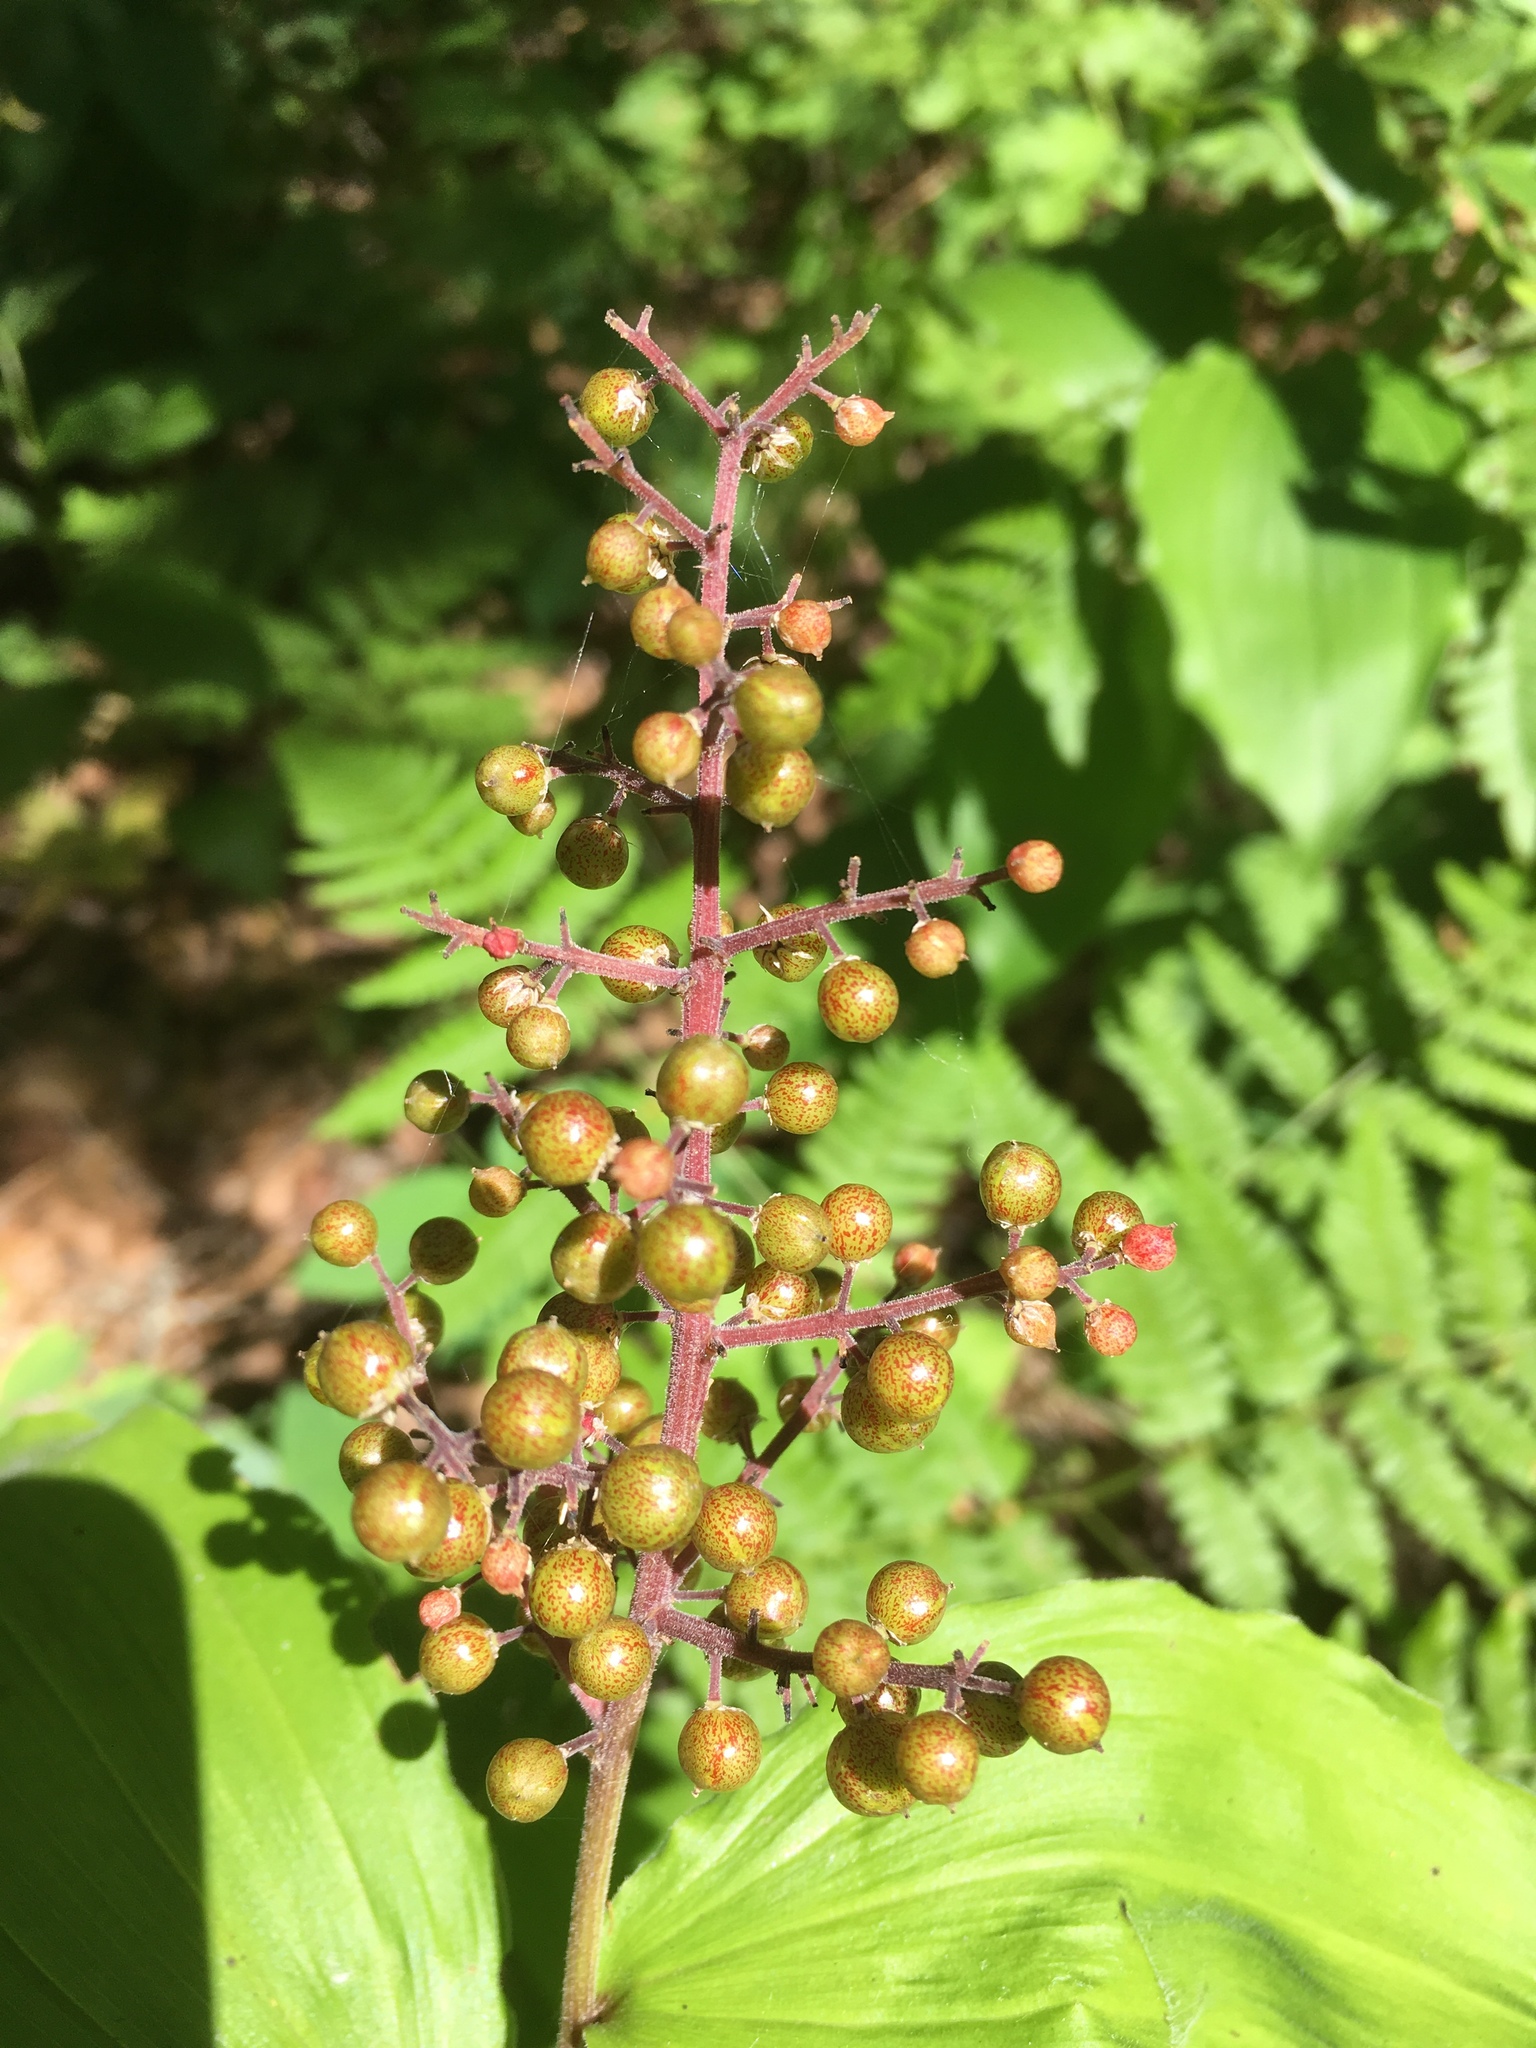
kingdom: Plantae
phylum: Tracheophyta
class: Liliopsida
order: Asparagales
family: Asparagaceae
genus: Maianthemum
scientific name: Maianthemum racemosum
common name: False spikenard
